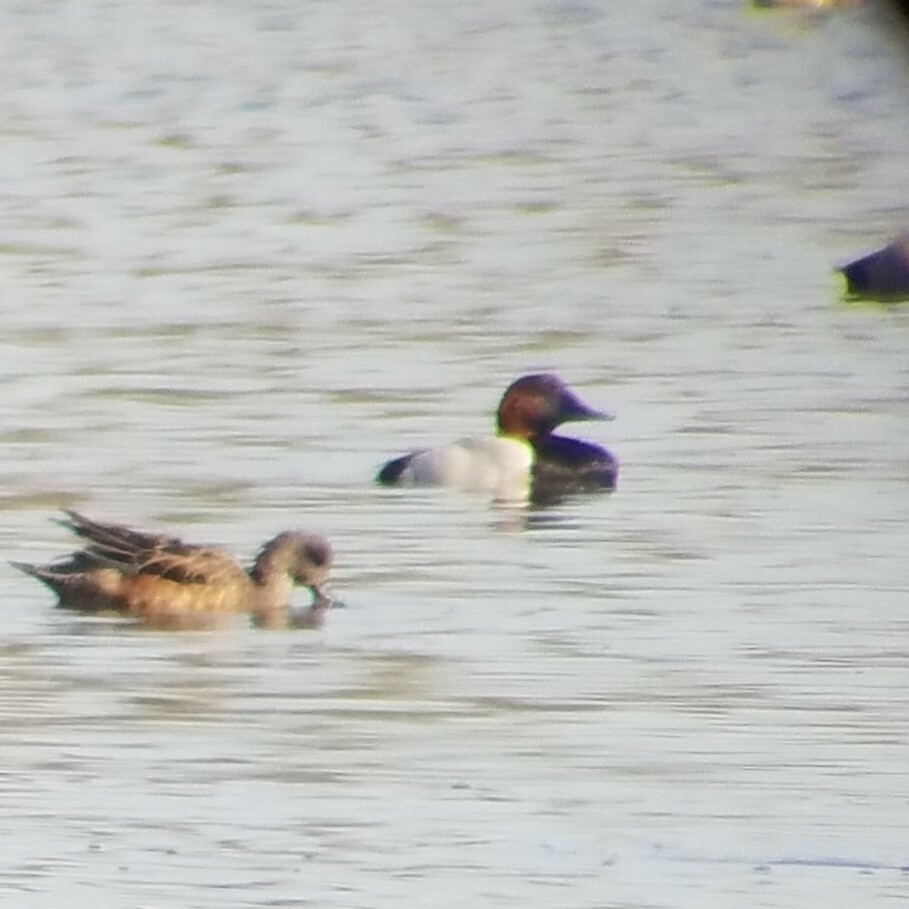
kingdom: Animalia
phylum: Chordata
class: Aves
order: Anseriformes
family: Anatidae
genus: Aythya
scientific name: Aythya valisineria
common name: Canvasback
